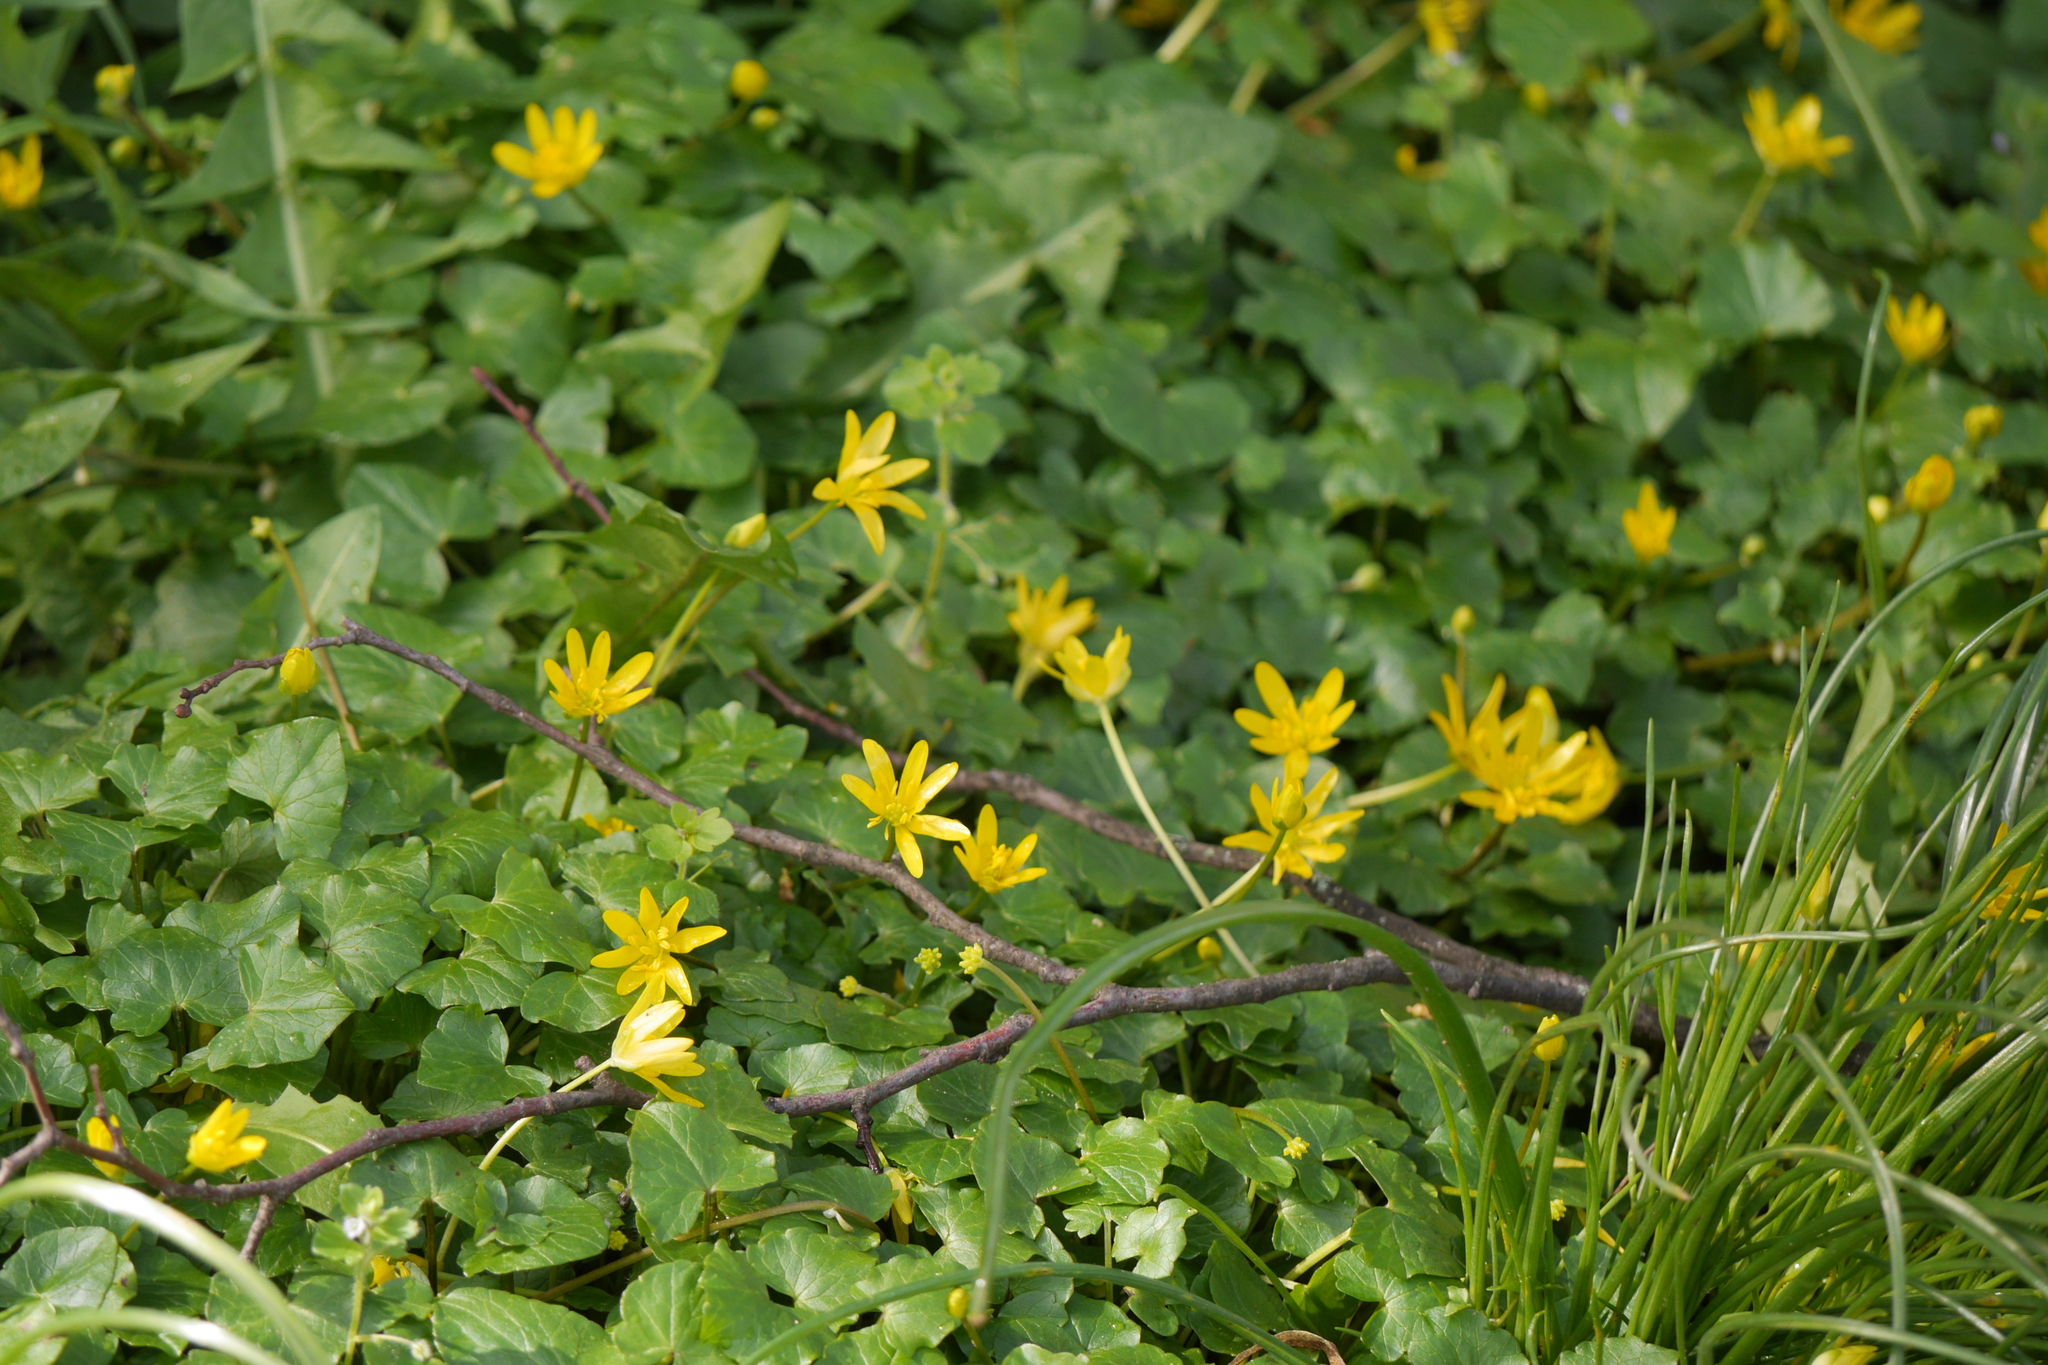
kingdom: Plantae
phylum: Tracheophyta
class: Magnoliopsida
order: Ranunculales
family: Ranunculaceae
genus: Ficaria
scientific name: Ficaria verna
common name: Lesser celandine
